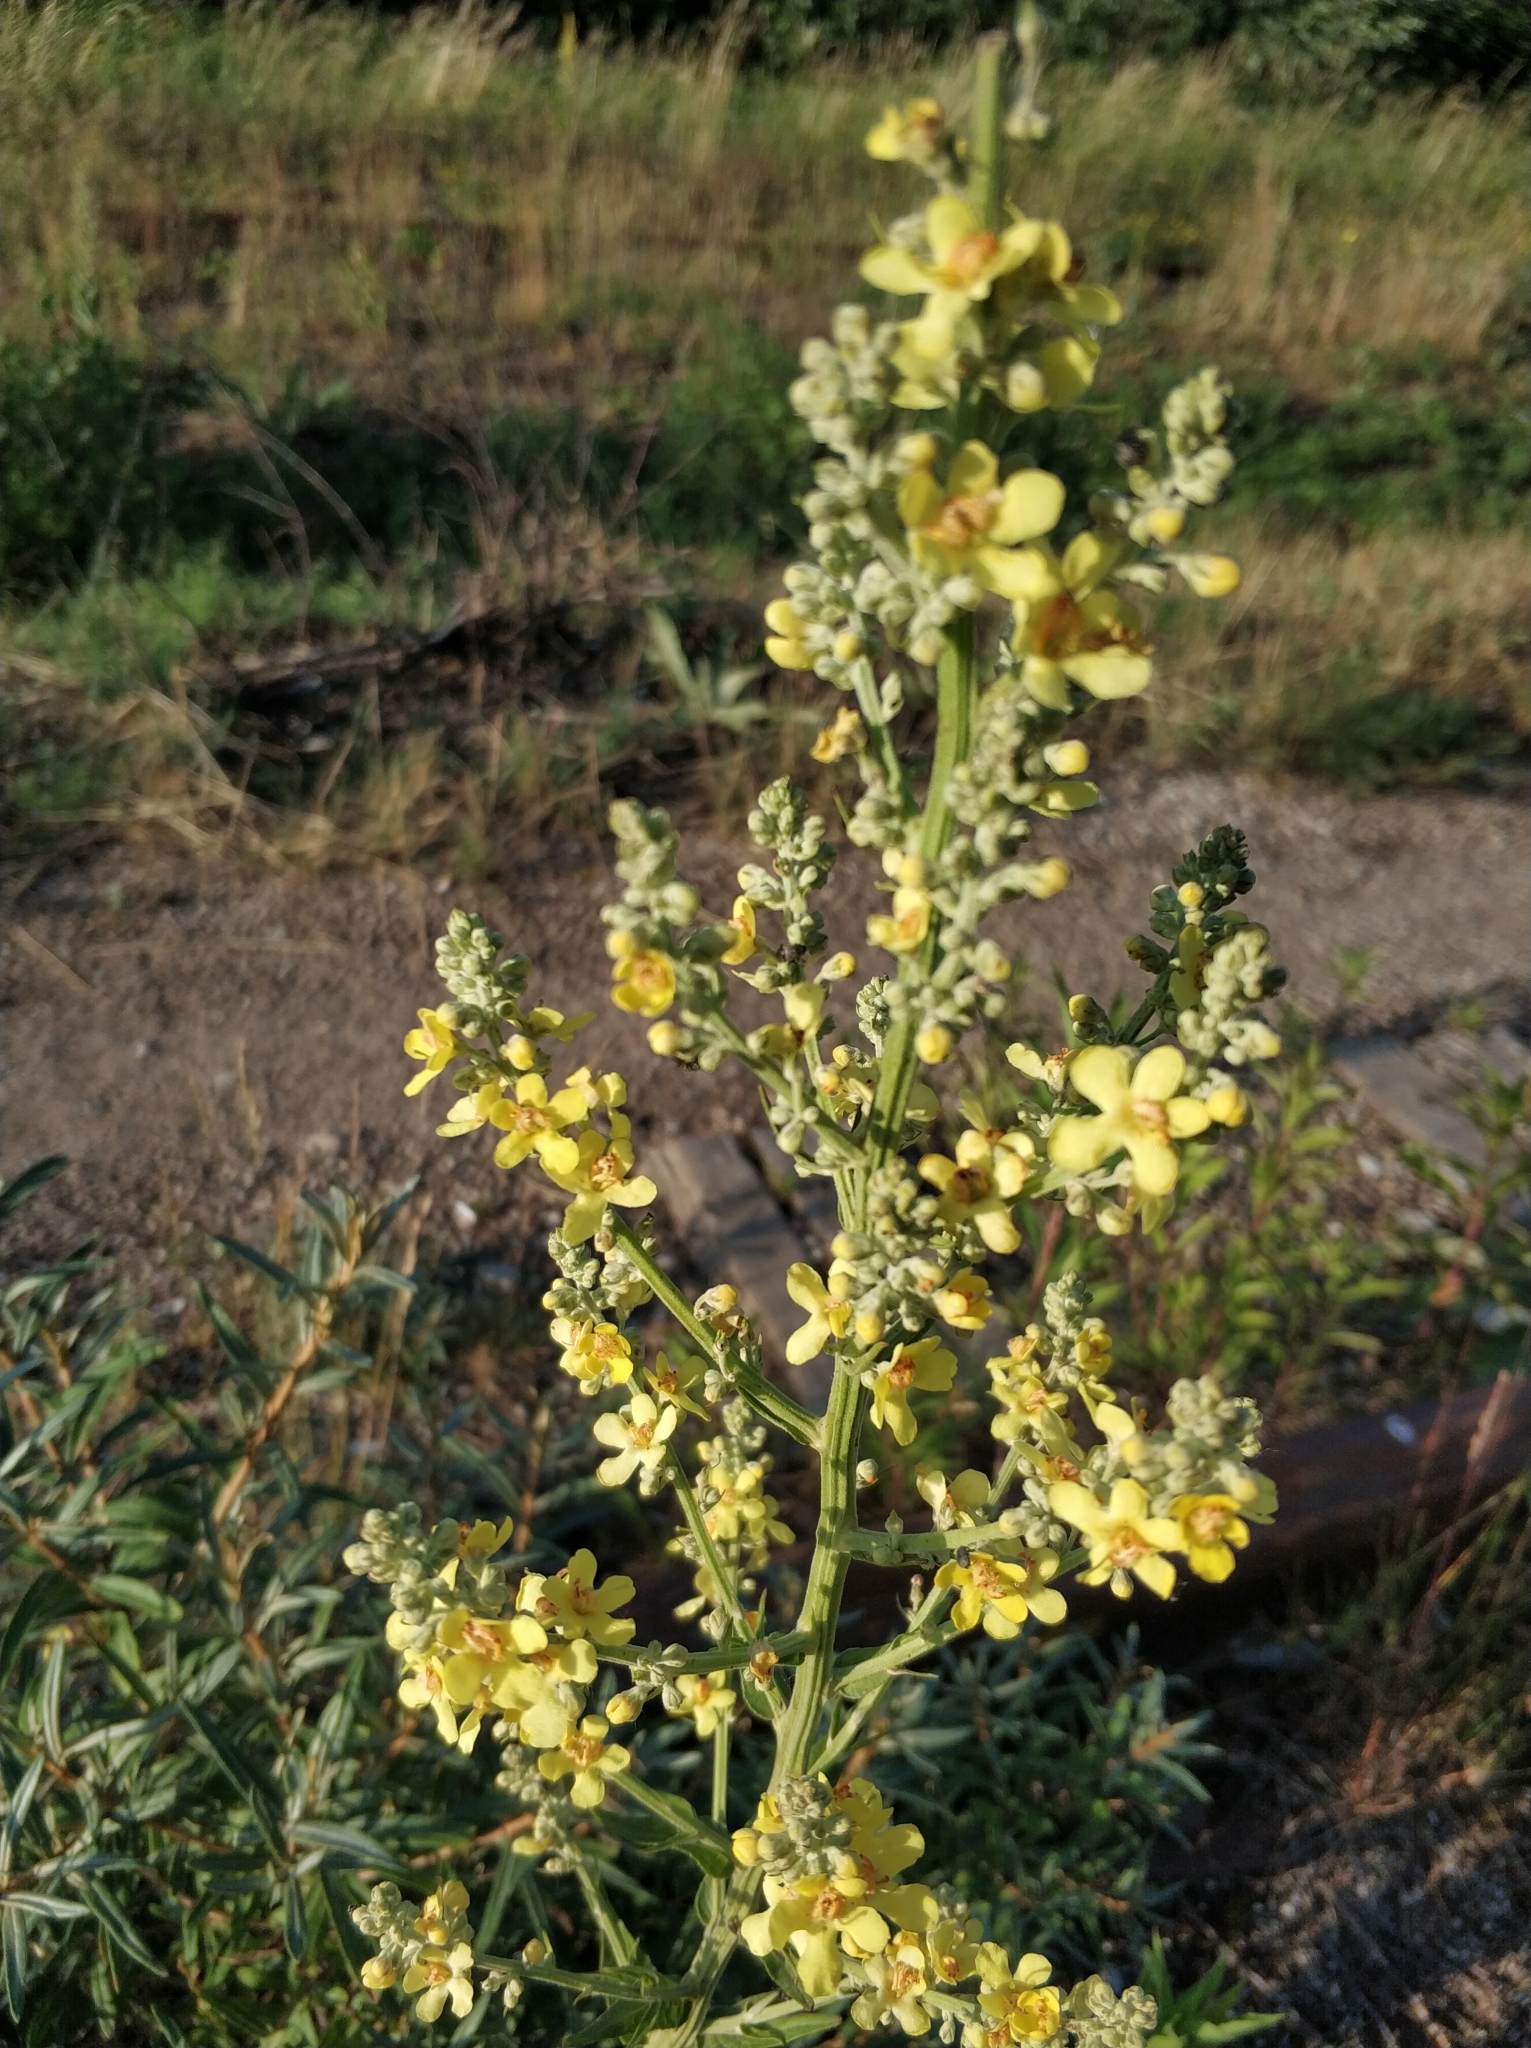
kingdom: Plantae
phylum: Tracheophyta
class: Magnoliopsida
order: Lamiales
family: Scrophulariaceae
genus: Verbascum
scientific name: Verbascum lychnitis
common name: White mullein
